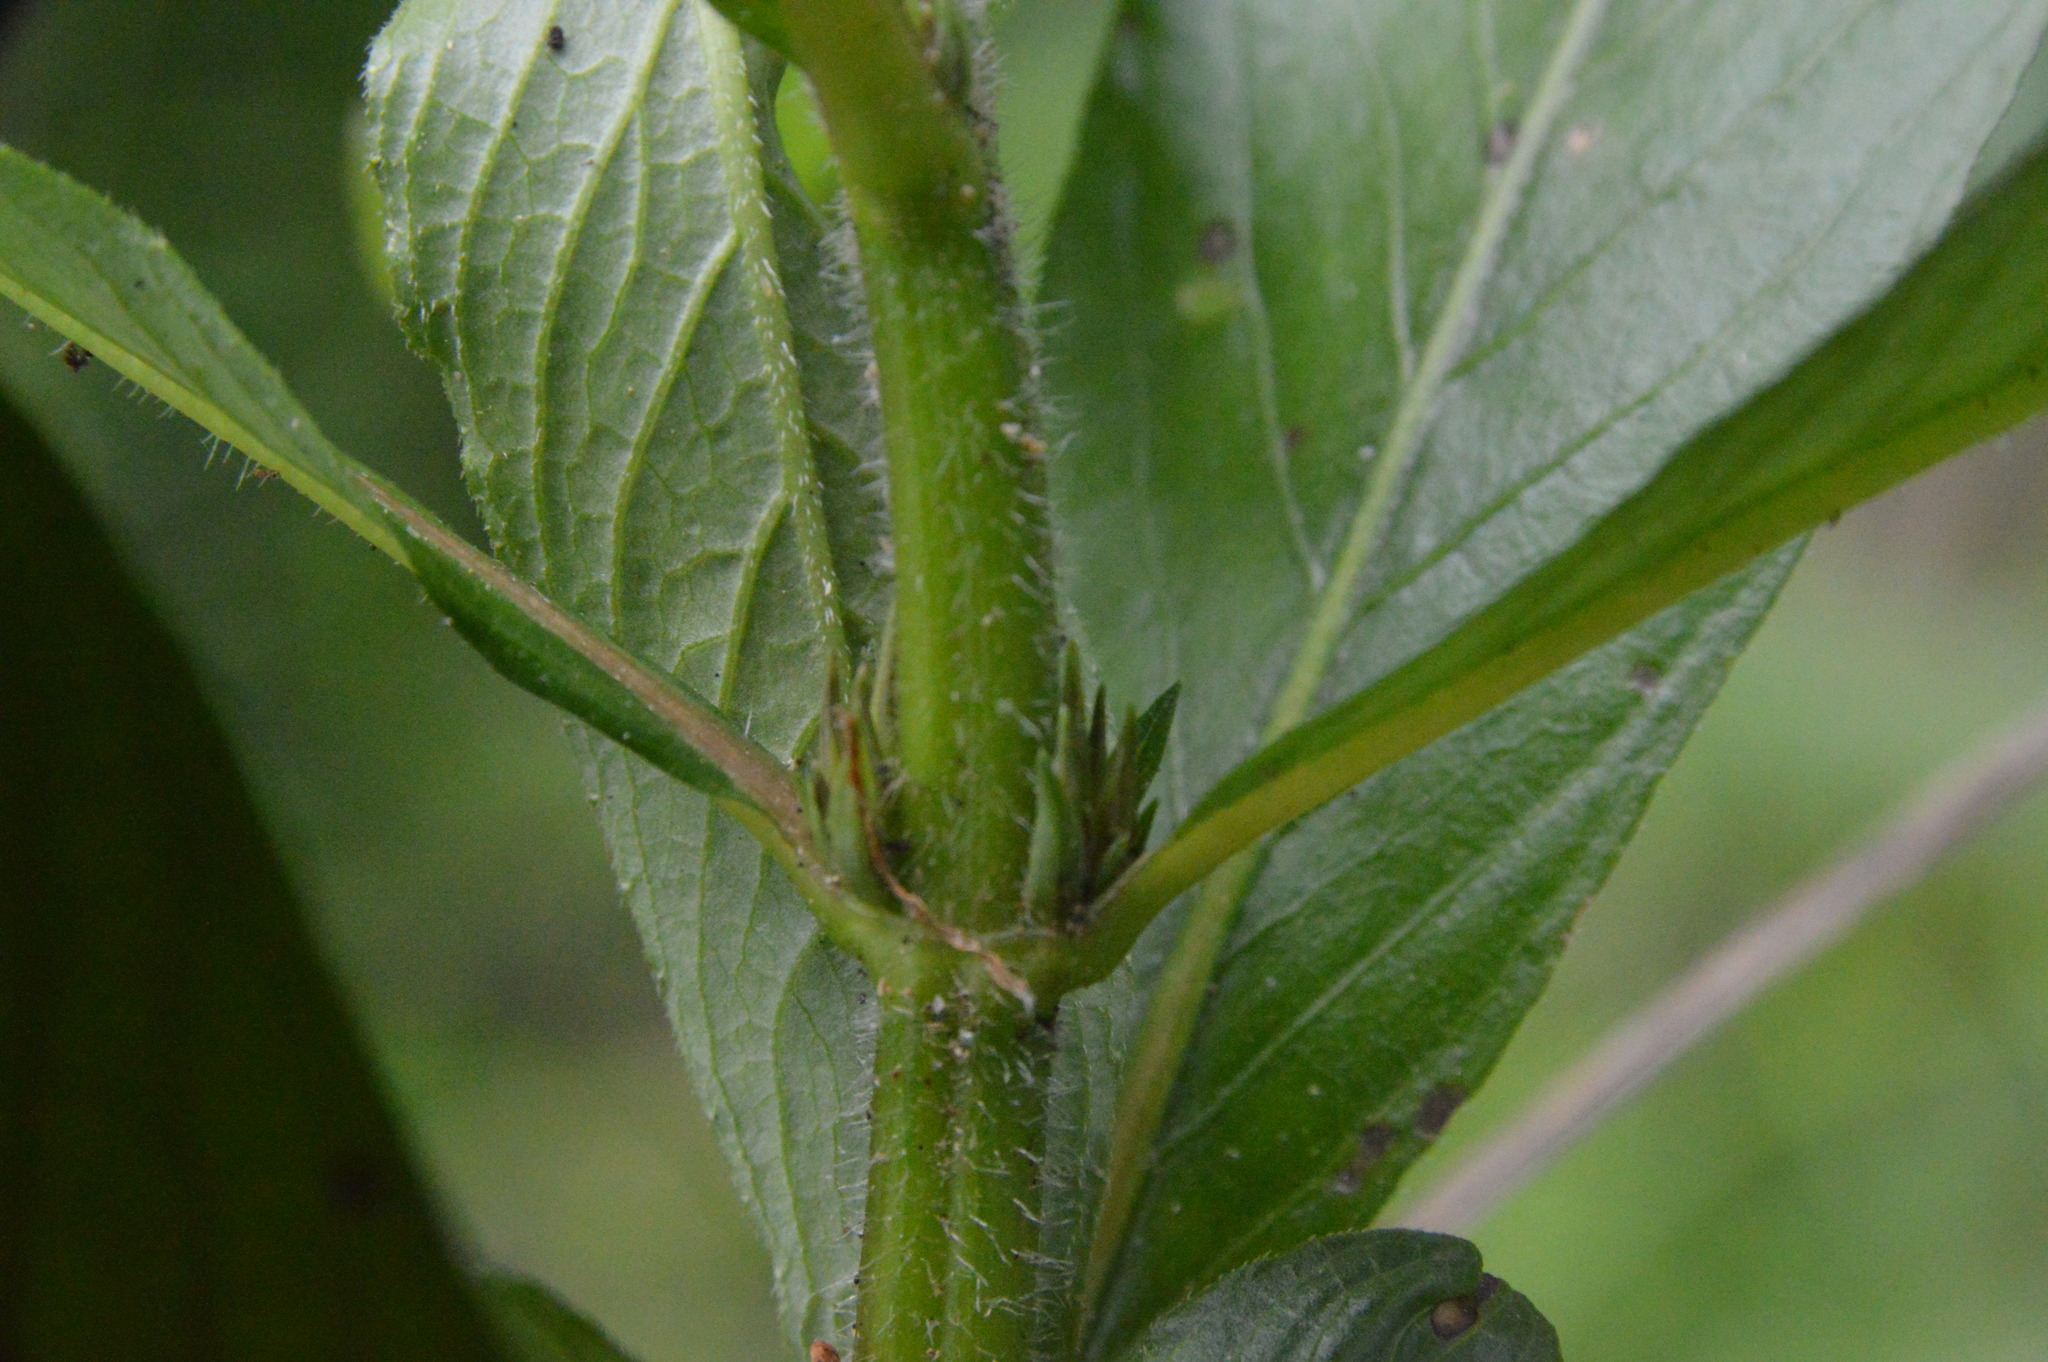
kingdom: Plantae
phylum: Tracheophyta
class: Magnoliopsida
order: Lamiales
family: Acanthaceae
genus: Hygrophila
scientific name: Hygrophila costata
